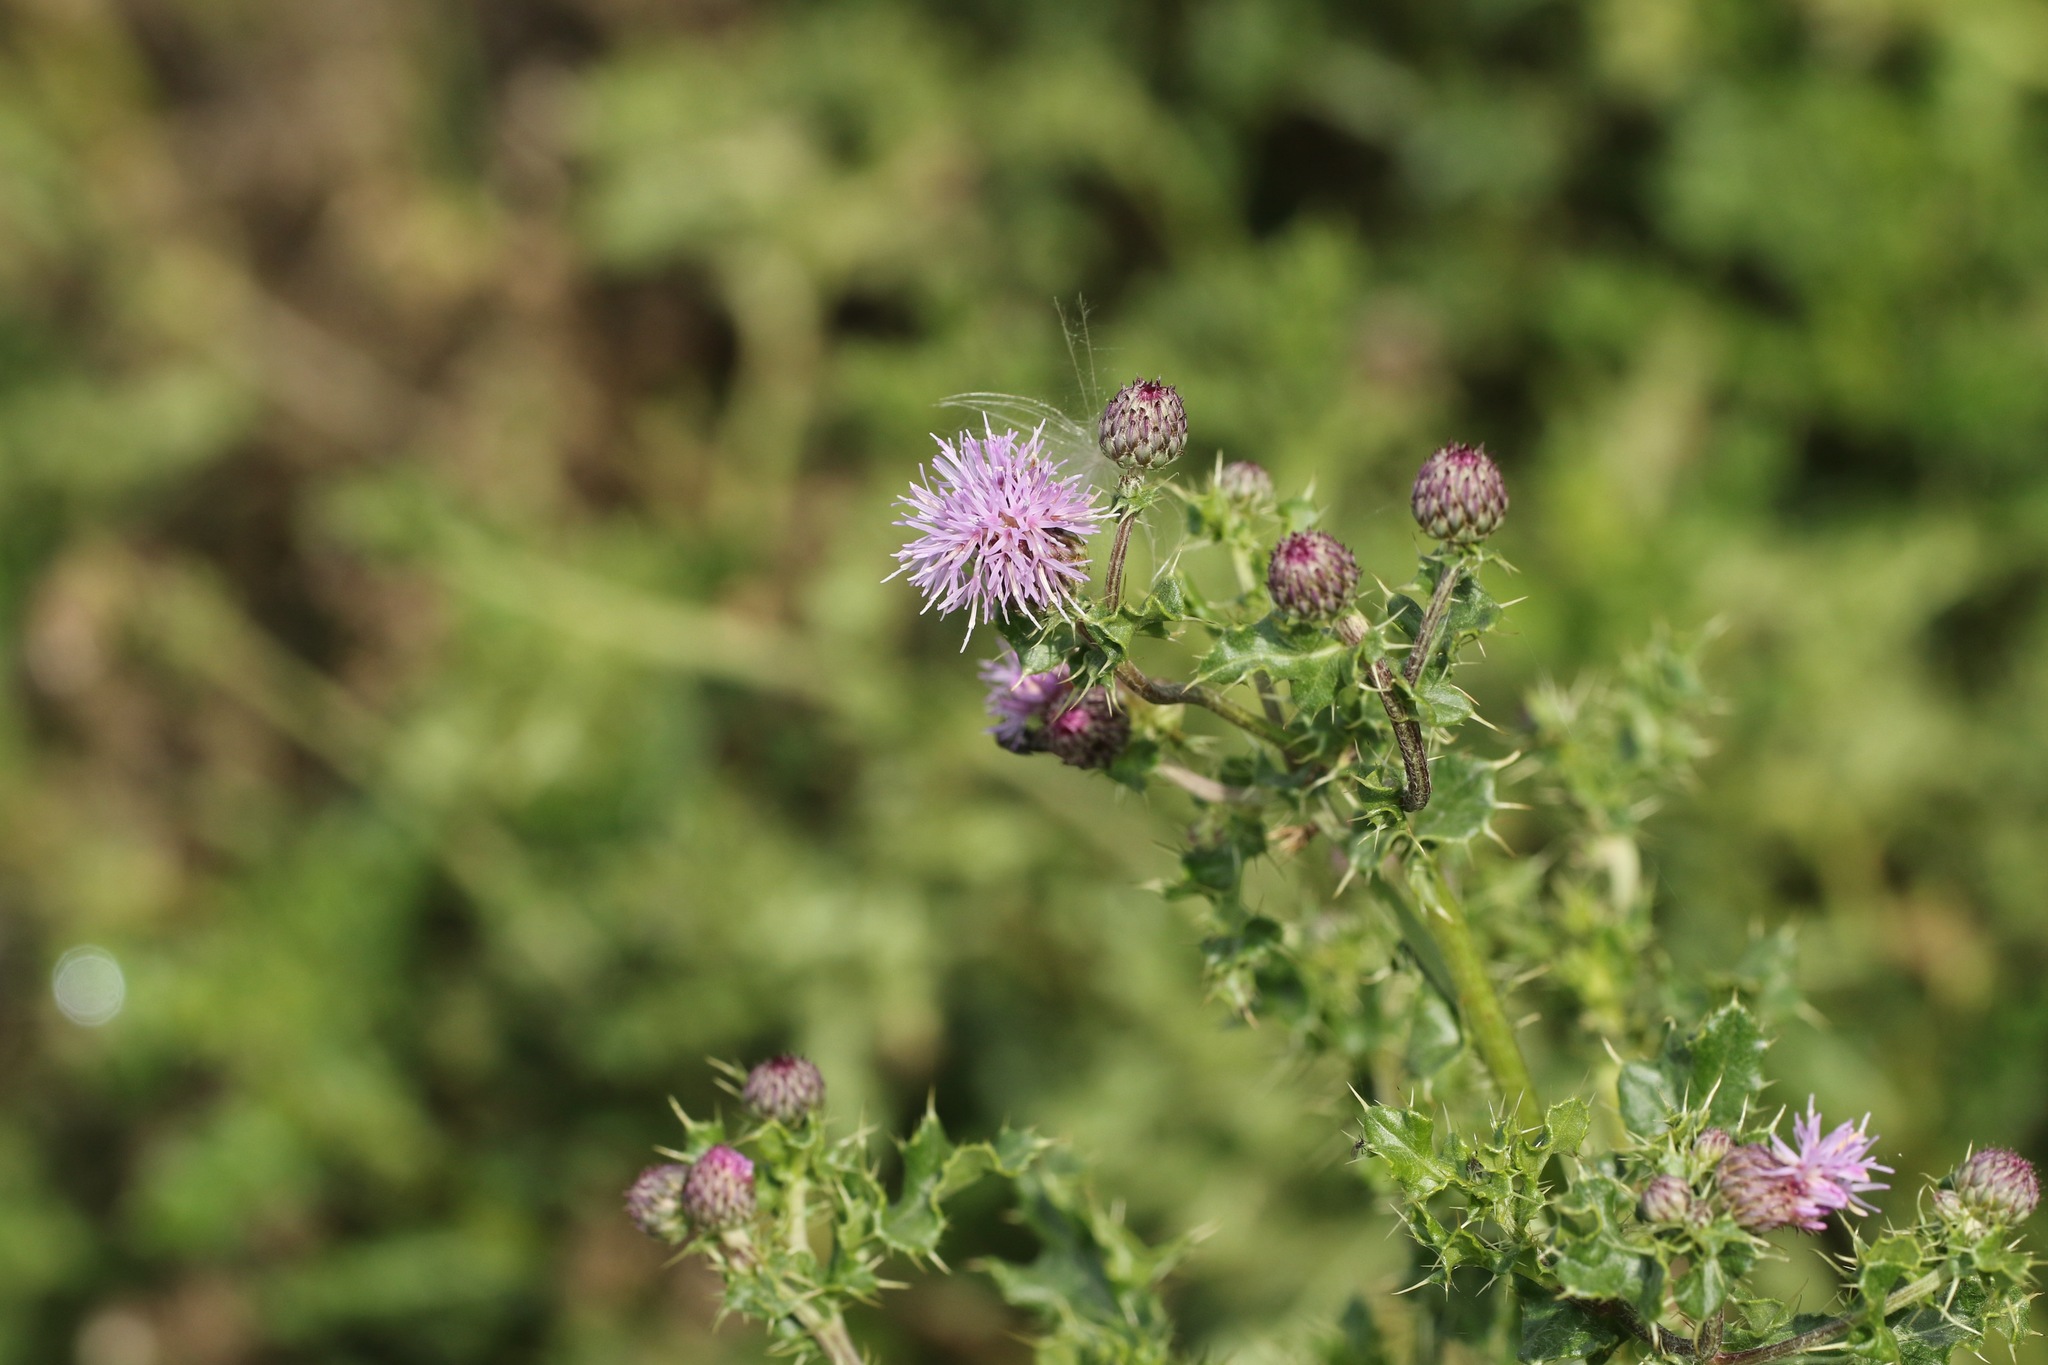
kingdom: Plantae
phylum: Tracheophyta
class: Magnoliopsida
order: Asterales
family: Asteraceae
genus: Cirsium
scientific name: Cirsium arvense
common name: Creeping thistle
